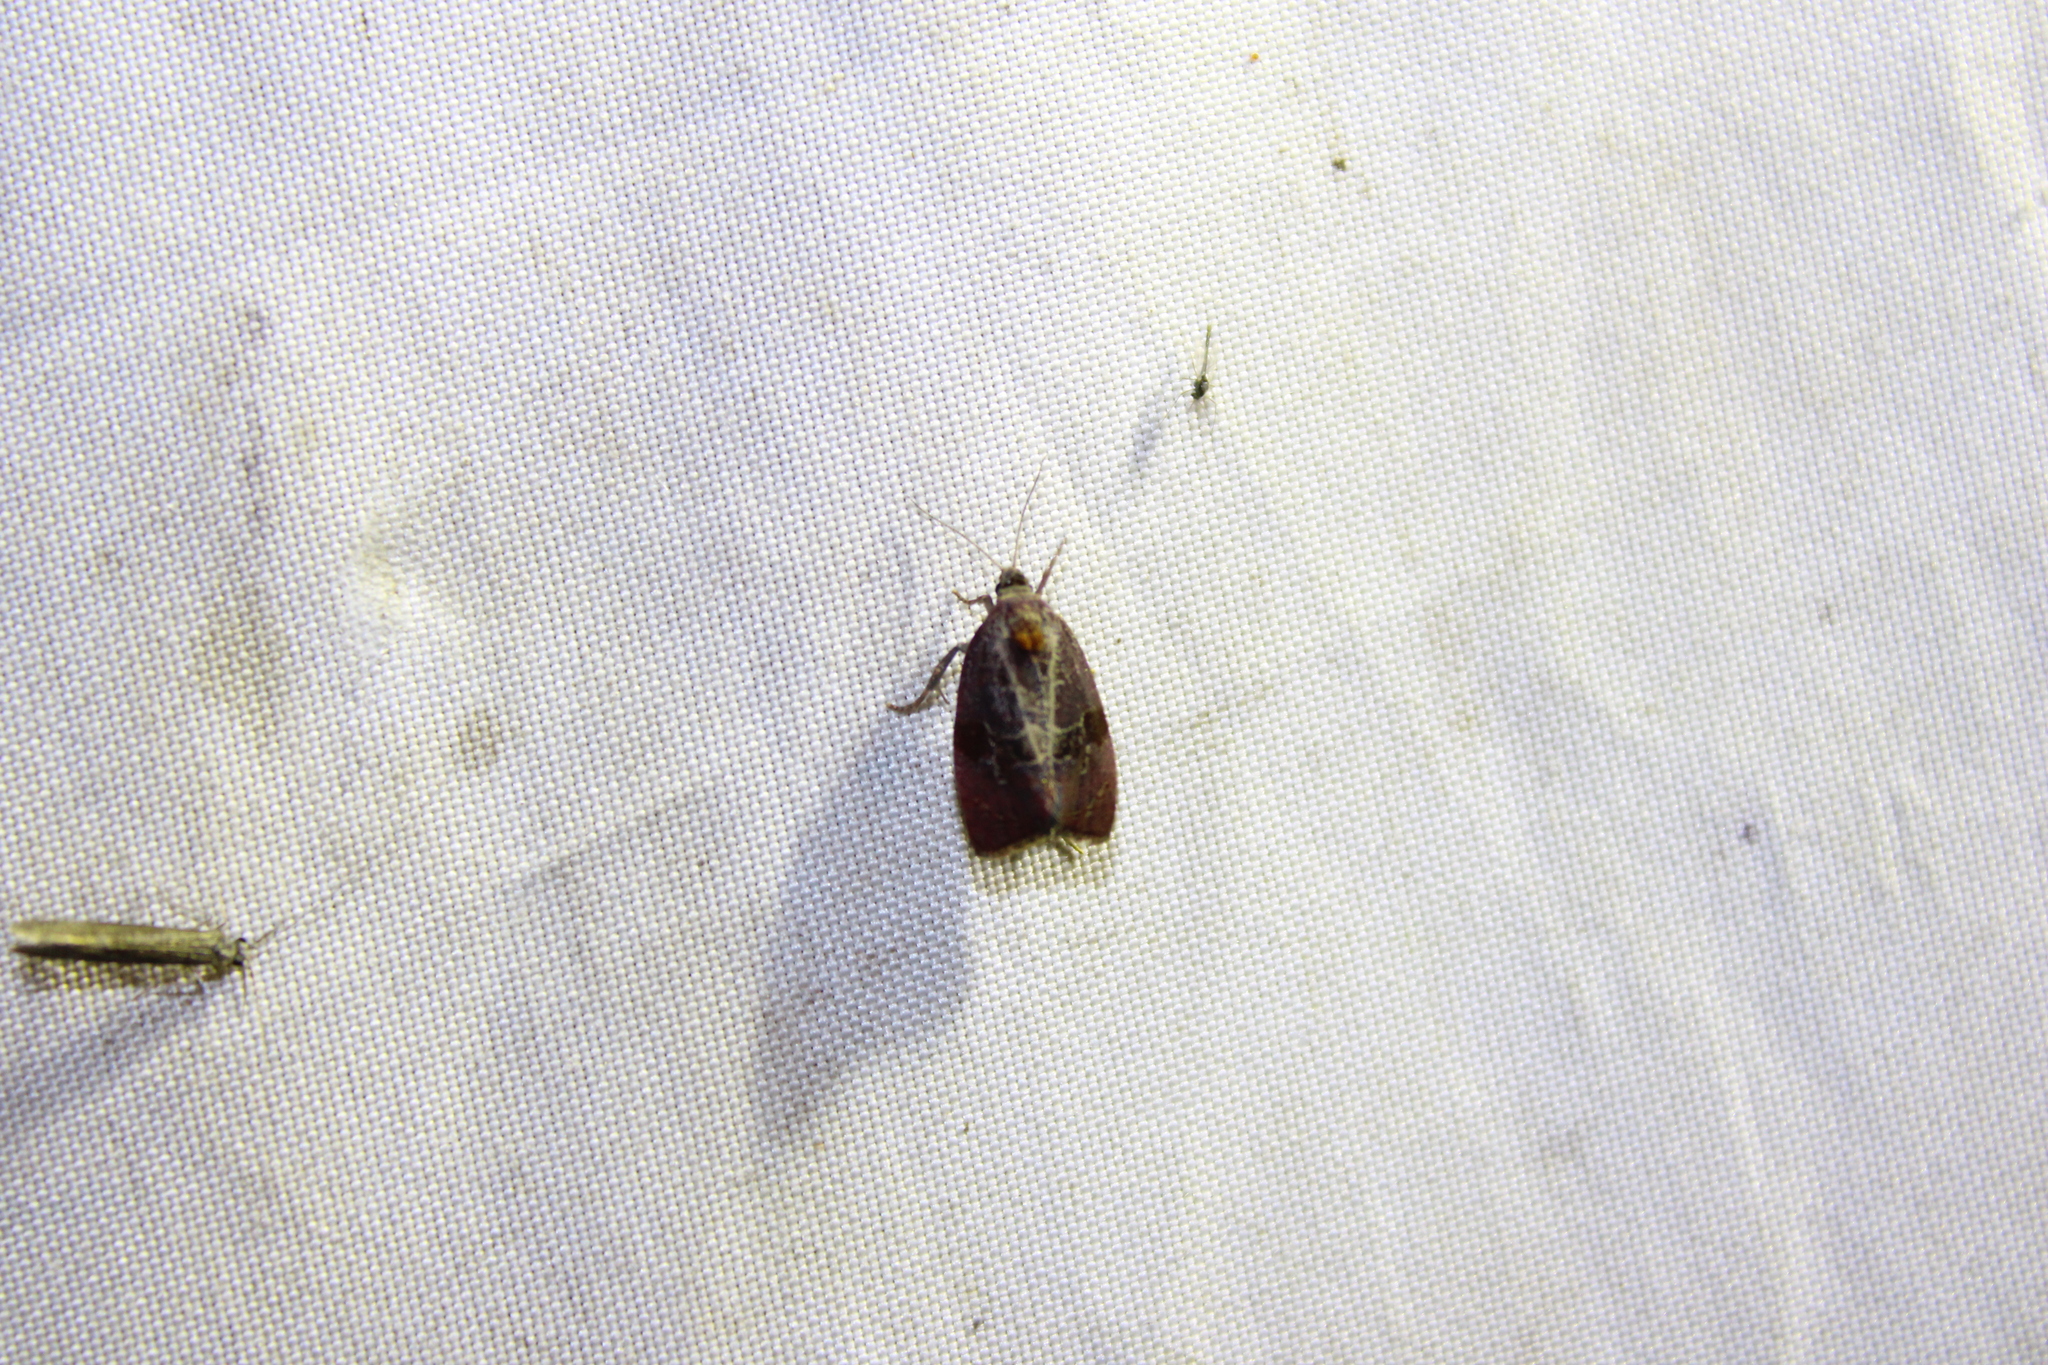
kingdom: Animalia
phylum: Arthropoda
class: Insecta
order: Lepidoptera
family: Tortricidae
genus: Evora
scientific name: Evora hemidesma
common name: Spirea leaftier moth
